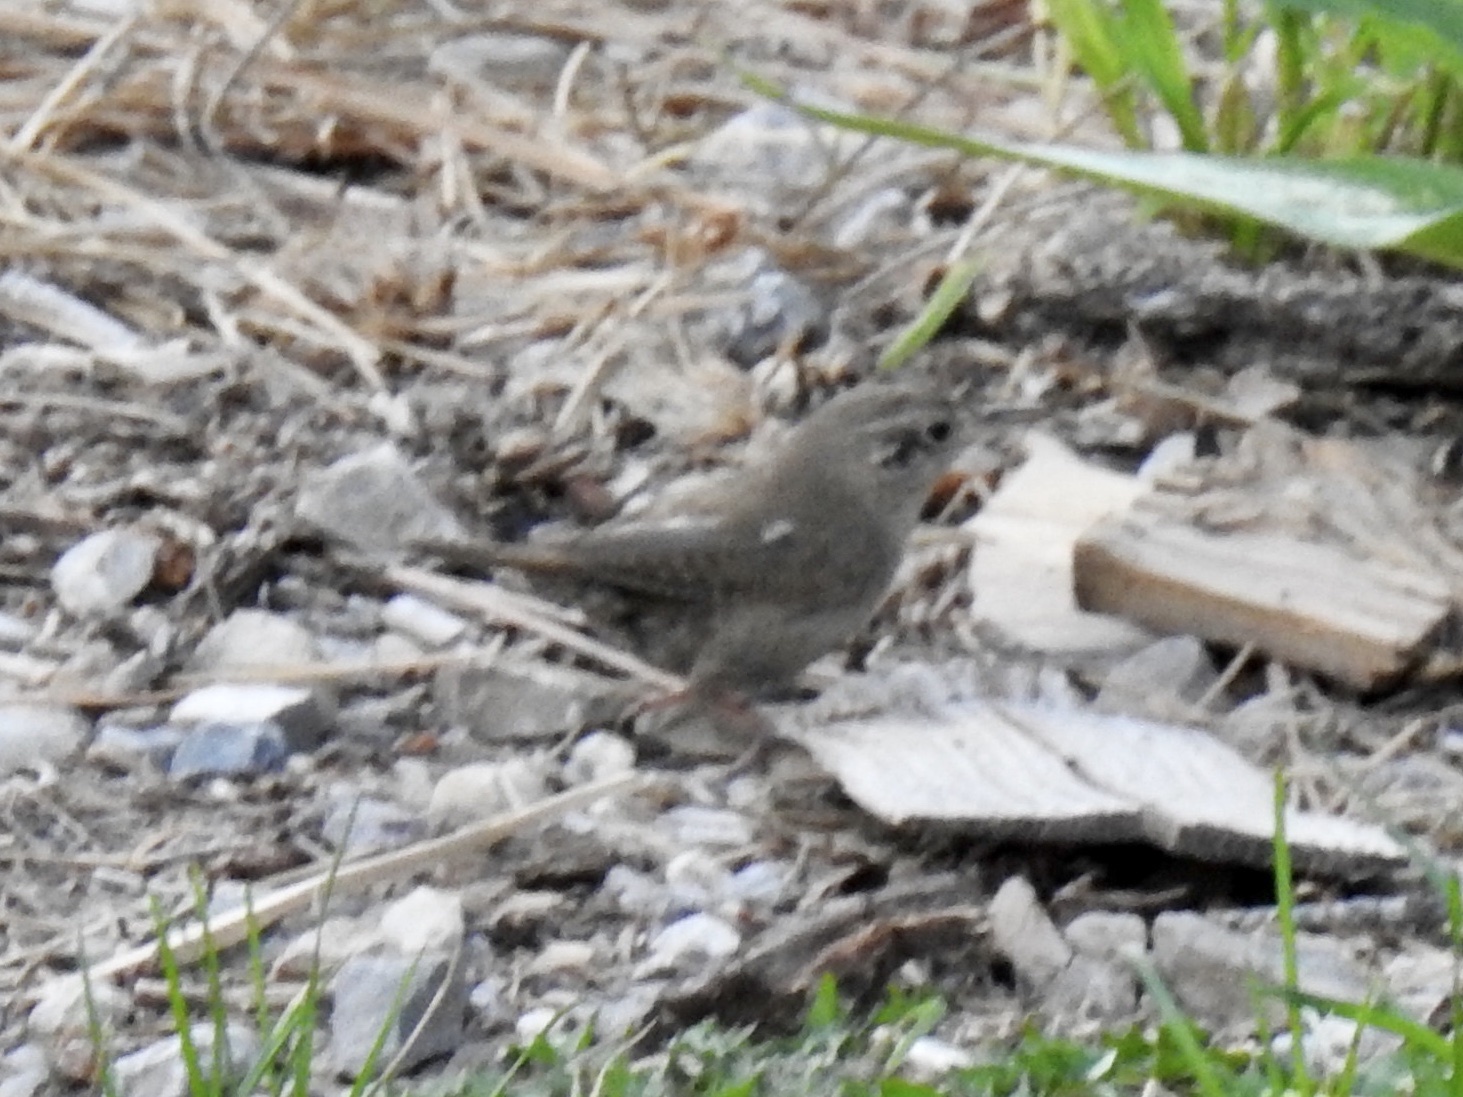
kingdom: Animalia
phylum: Chordata
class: Aves
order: Passeriformes
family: Troglodytidae
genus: Troglodytes
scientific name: Troglodytes aedon
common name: House wren
